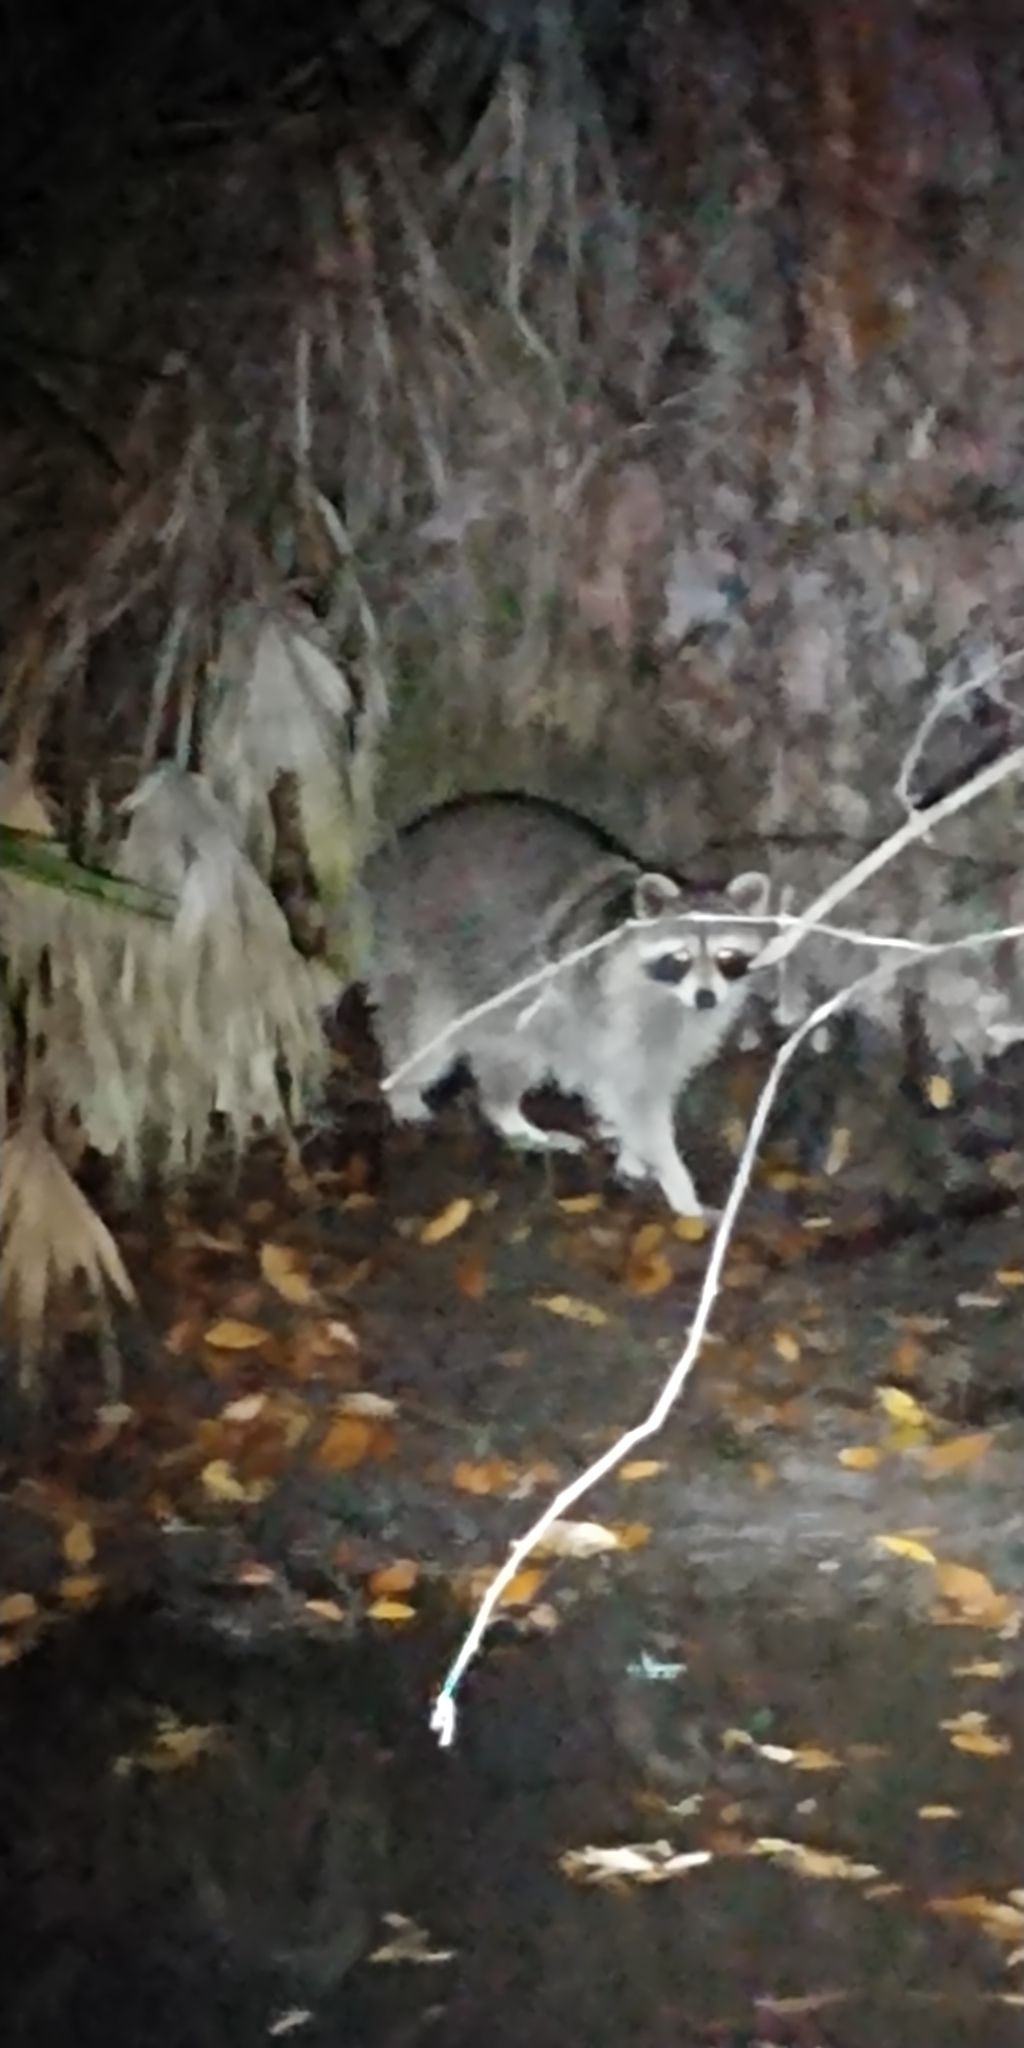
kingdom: Animalia
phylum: Chordata
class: Mammalia
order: Carnivora
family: Procyonidae
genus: Procyon
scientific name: Procyon lotor
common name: Raccoon
